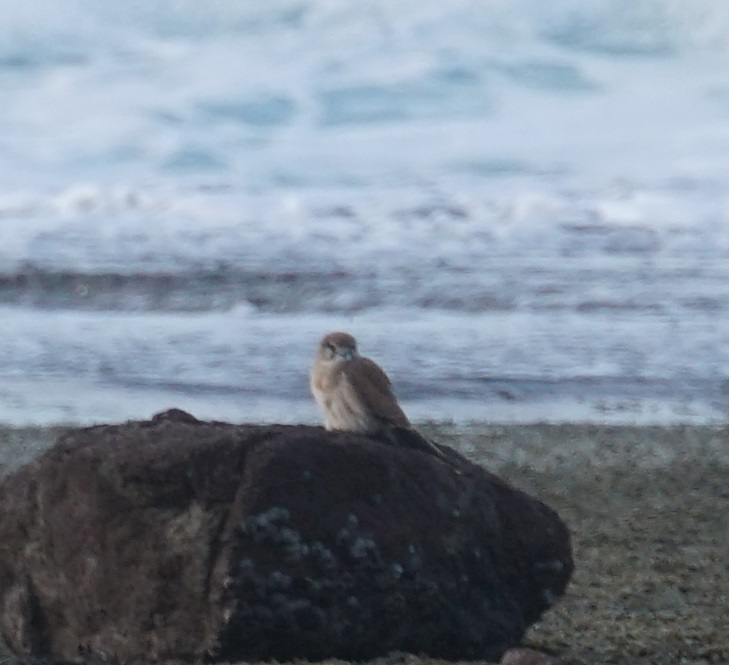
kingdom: Animalia
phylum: Chordata
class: Aves
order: Falconiformes
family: Falconidae
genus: Falco
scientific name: Falco cenchroides
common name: Nankeen kestrel
